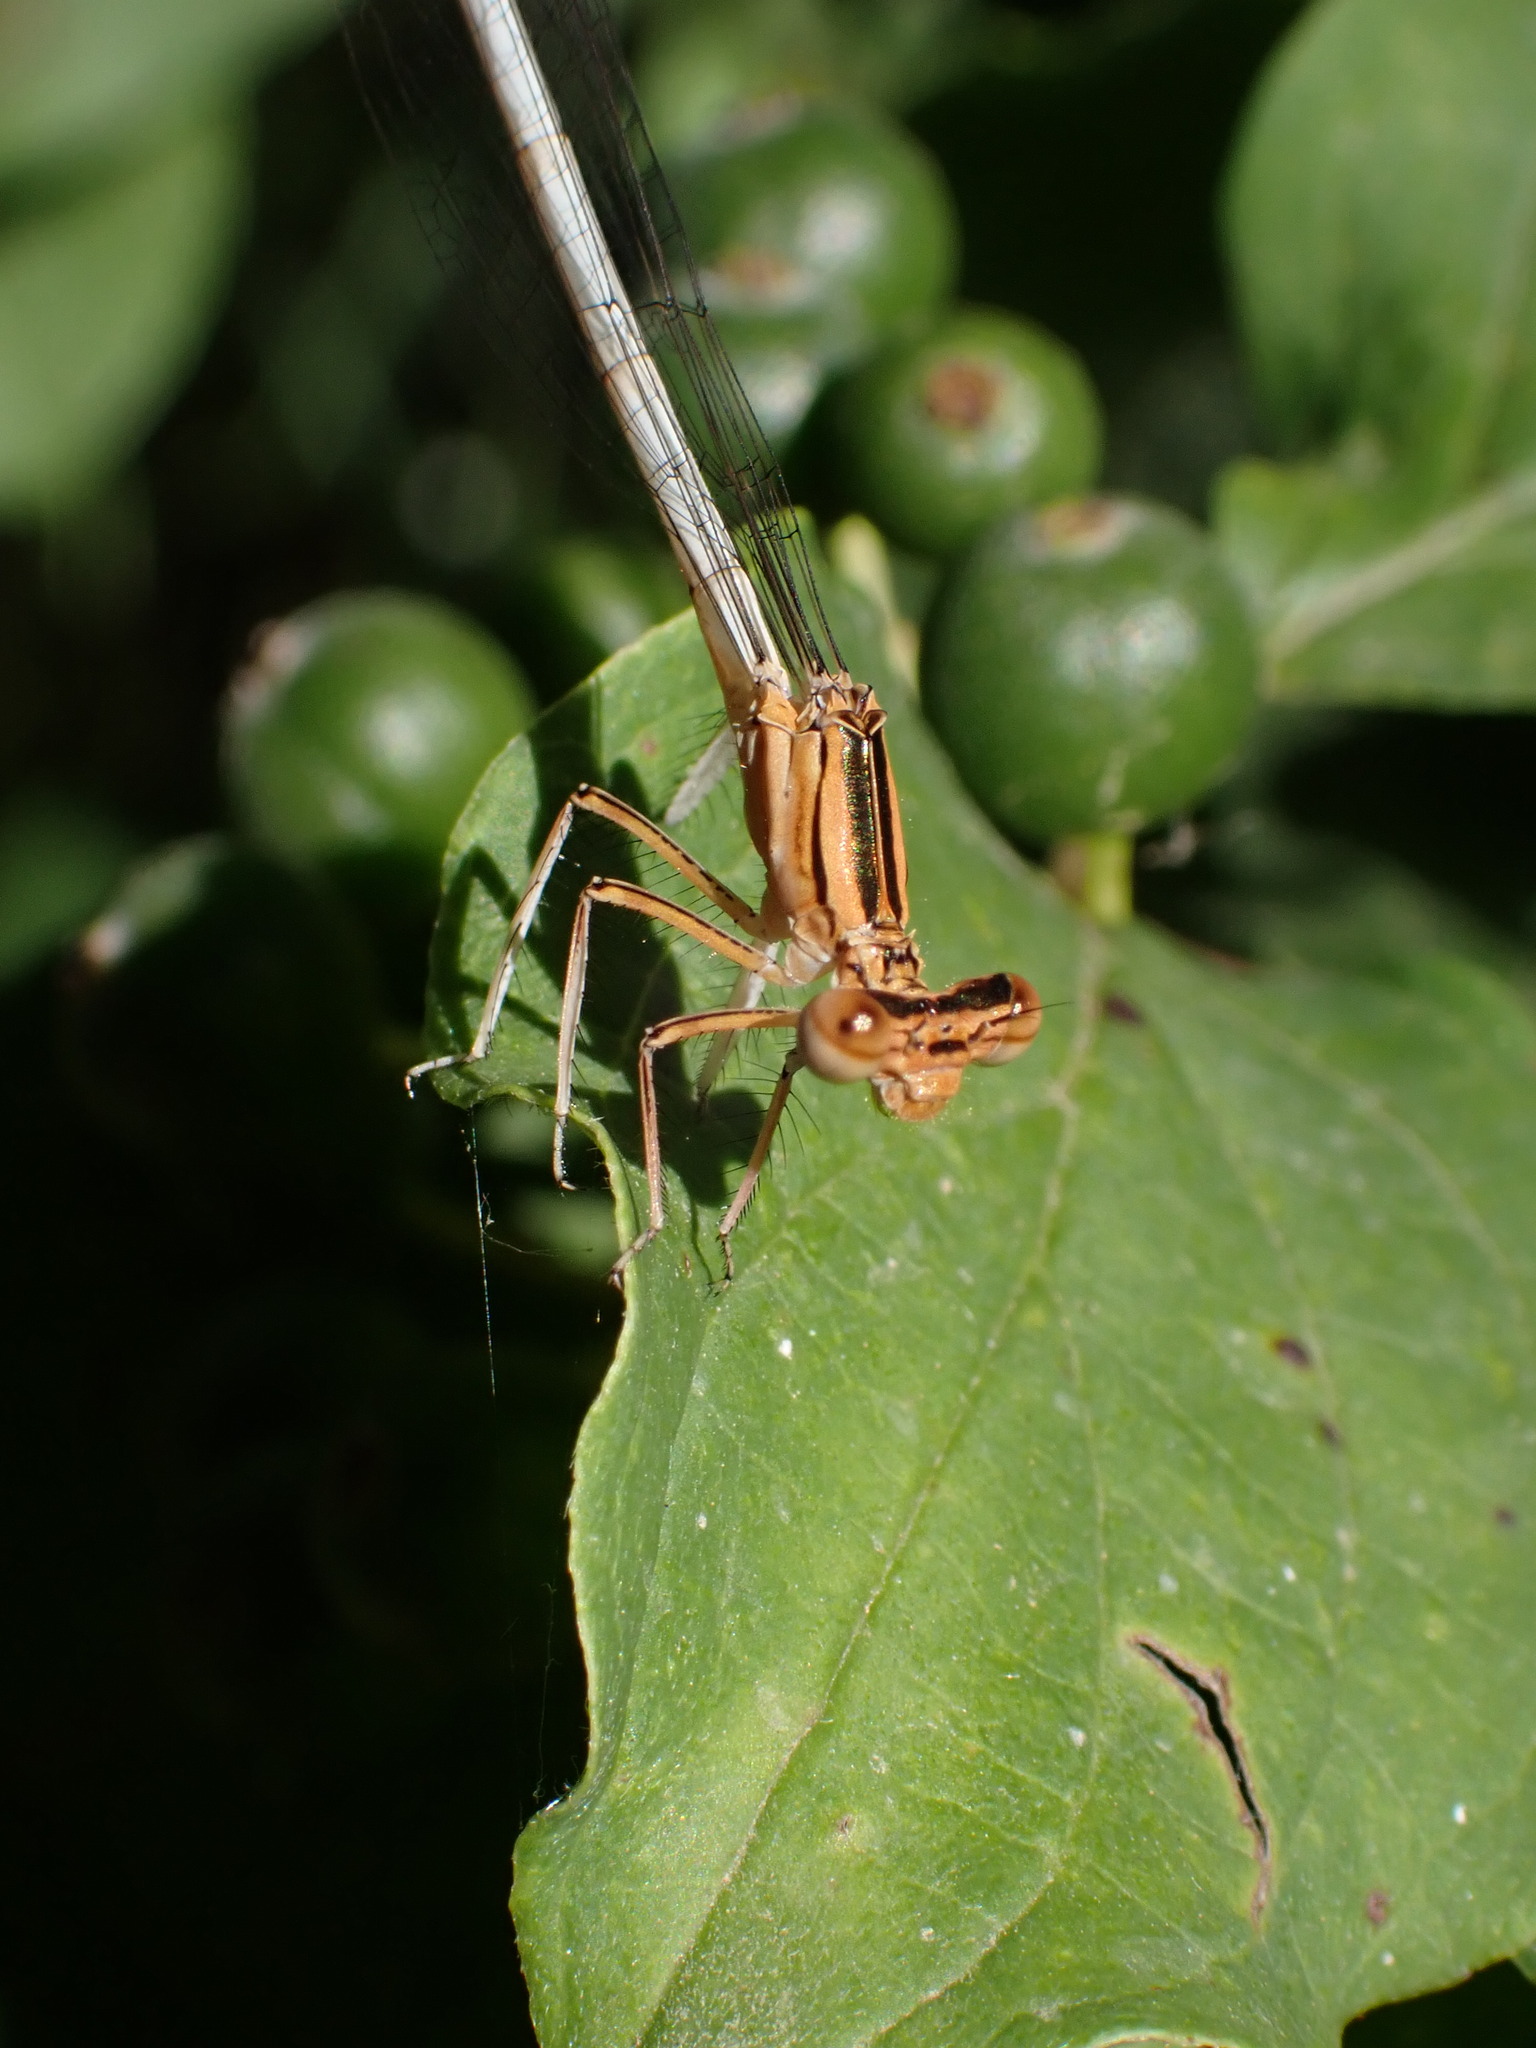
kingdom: Animalia
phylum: Arthropoda
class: Insecta
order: Odonata
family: Platycnemididae
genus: Platycnemis
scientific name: Platycnemis latipes
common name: White featherleg
